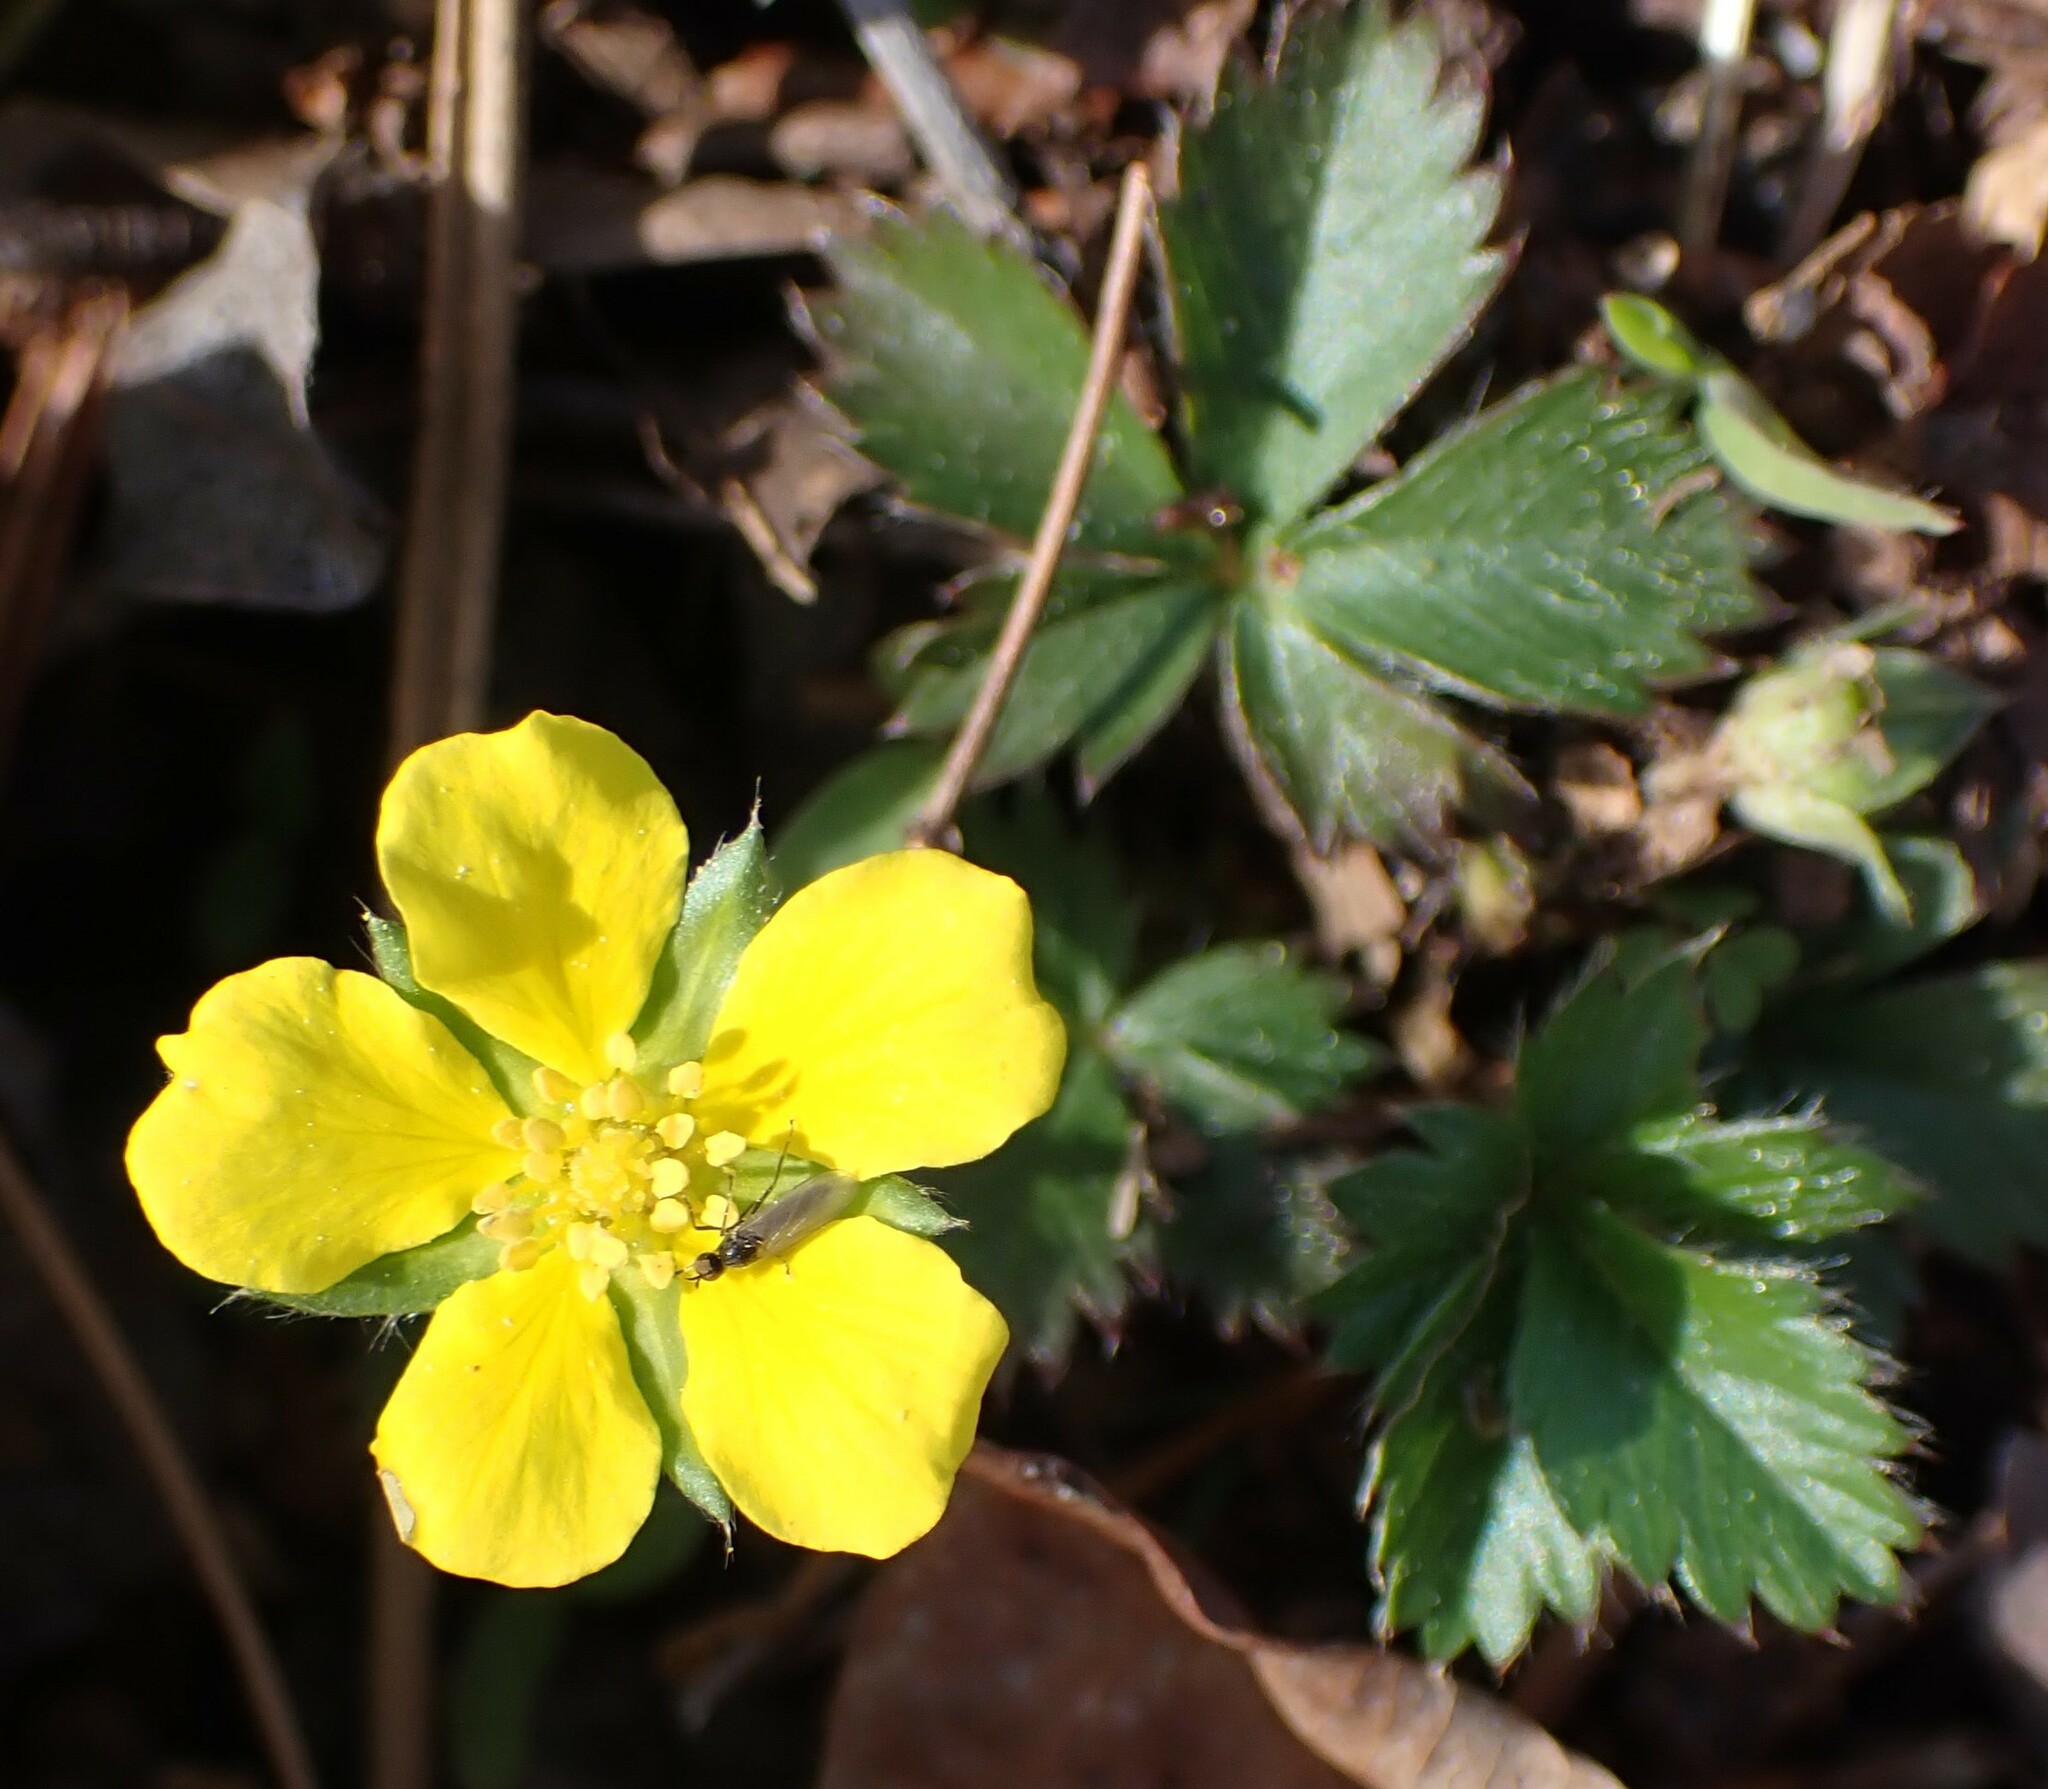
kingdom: Plantae
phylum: Tracheophyta
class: Magnoliopsida
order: Rosales
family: Rosaceae
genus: Potentilla
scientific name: Potentilla canadensis
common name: Canada cinquefoil
